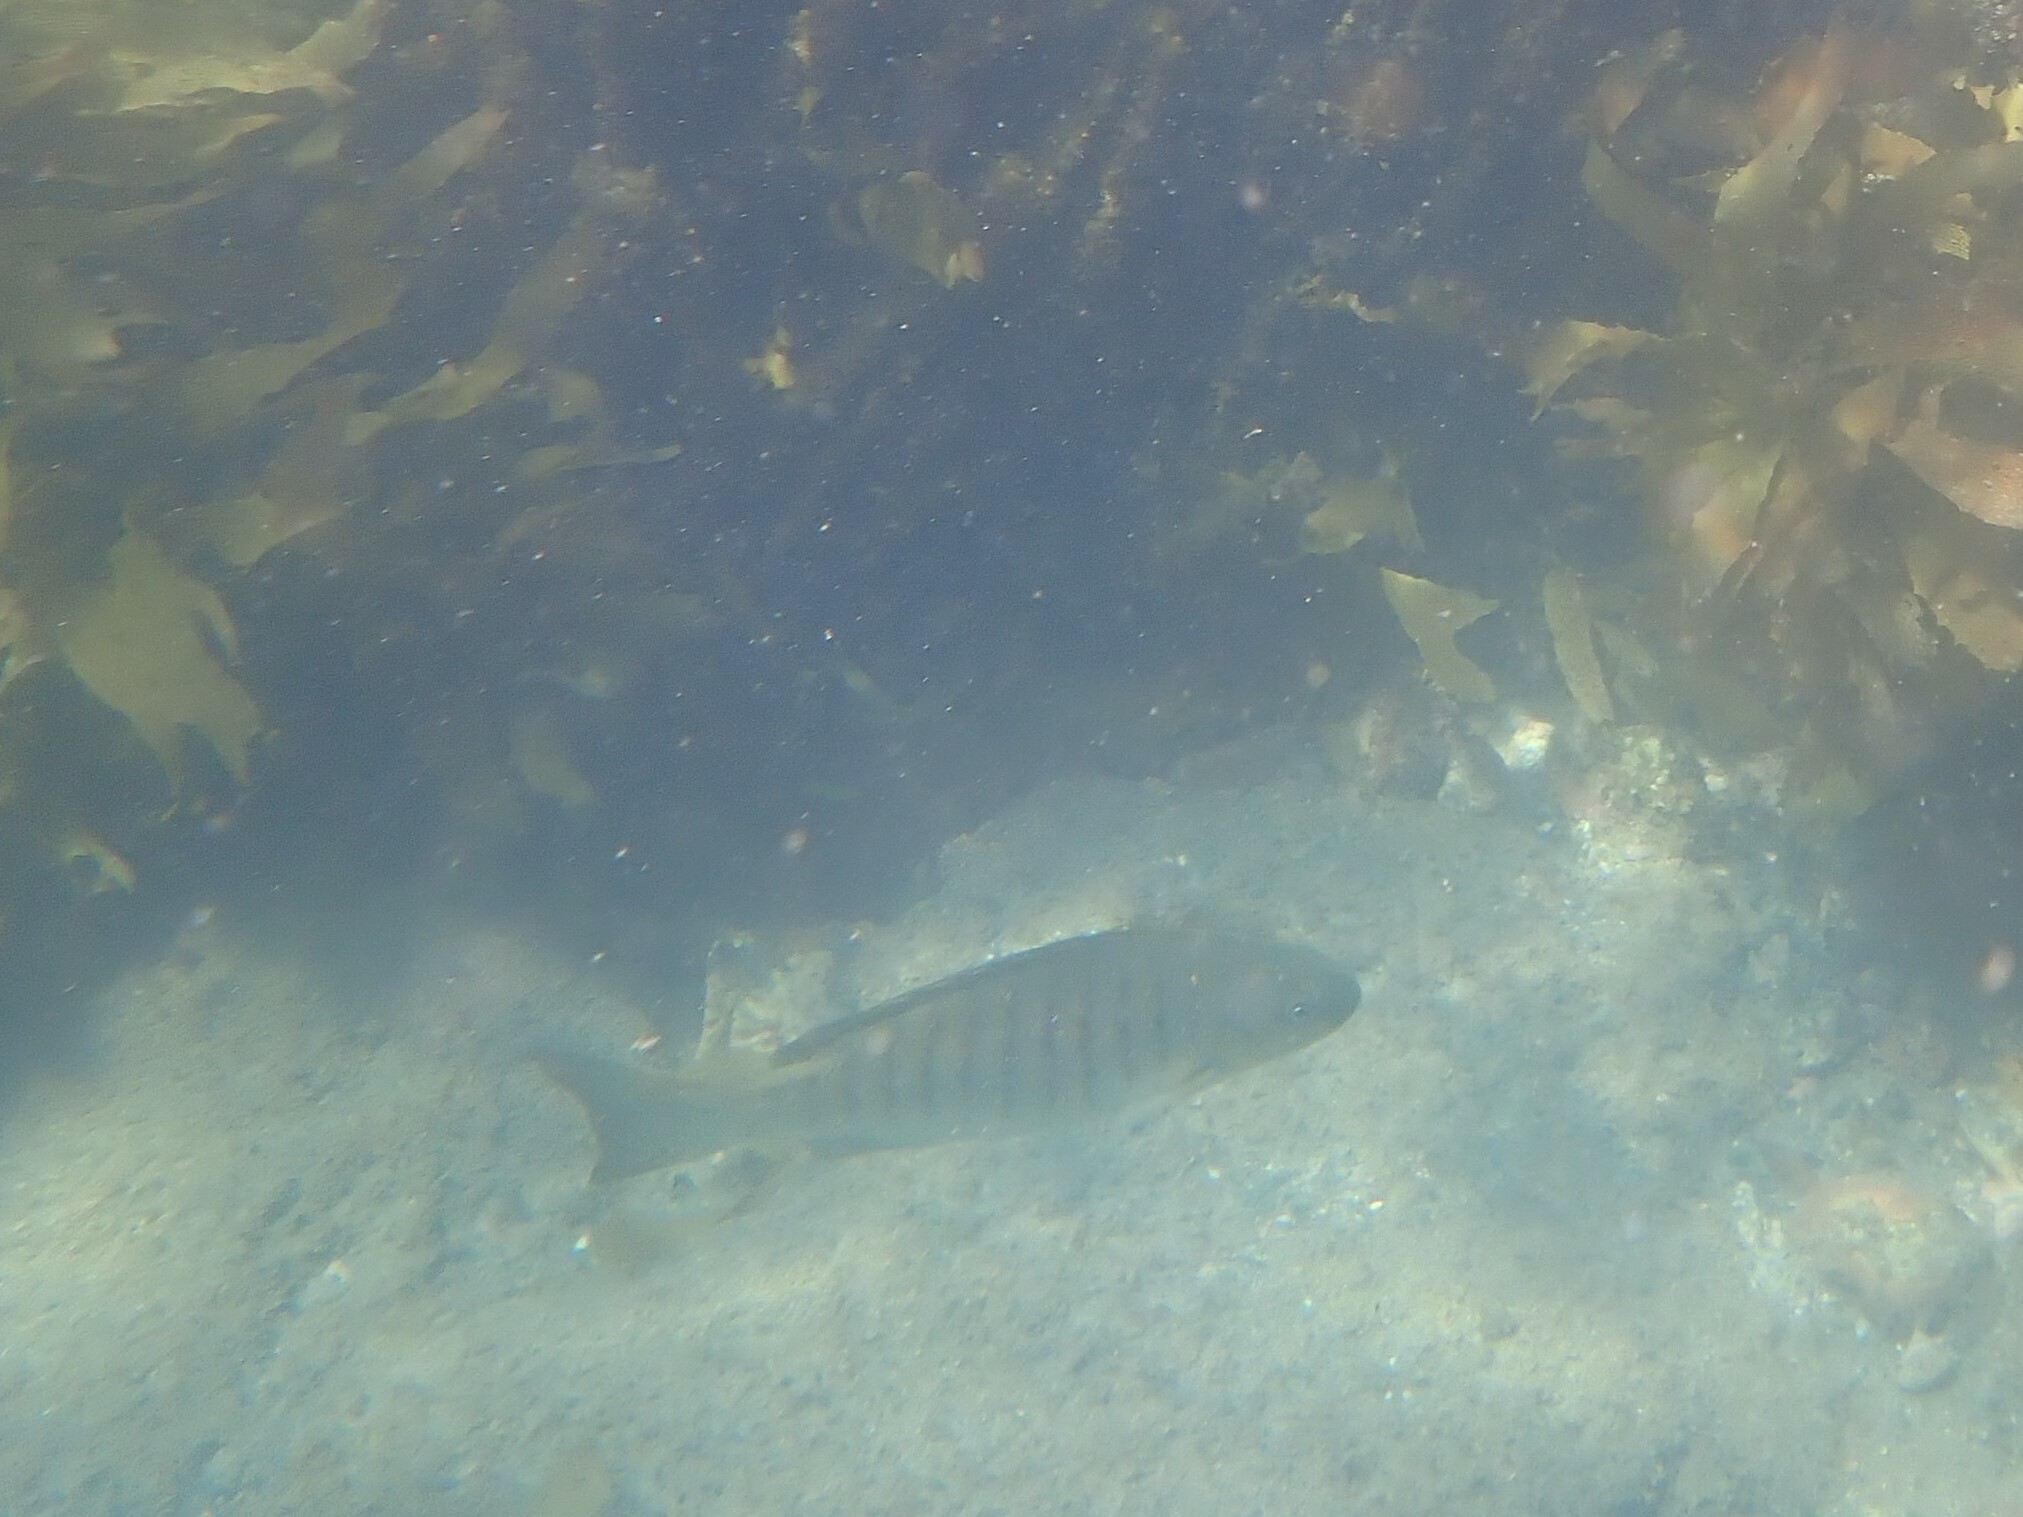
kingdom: Animalia
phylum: Chordata
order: Perciformes
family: Kyphosidae
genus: Girella
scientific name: Girella tricuspidata
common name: Parore
